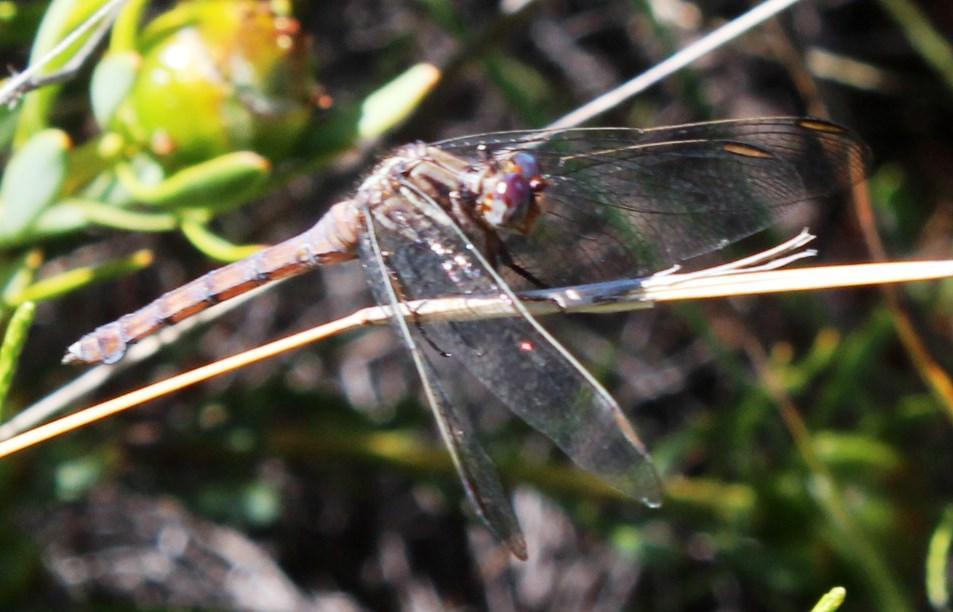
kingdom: Animalia
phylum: Arthropoda
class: Insecta
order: Odonata
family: Libellulidae
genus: Orthetrum
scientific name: Orthetrum julia
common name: Julia skimmer
